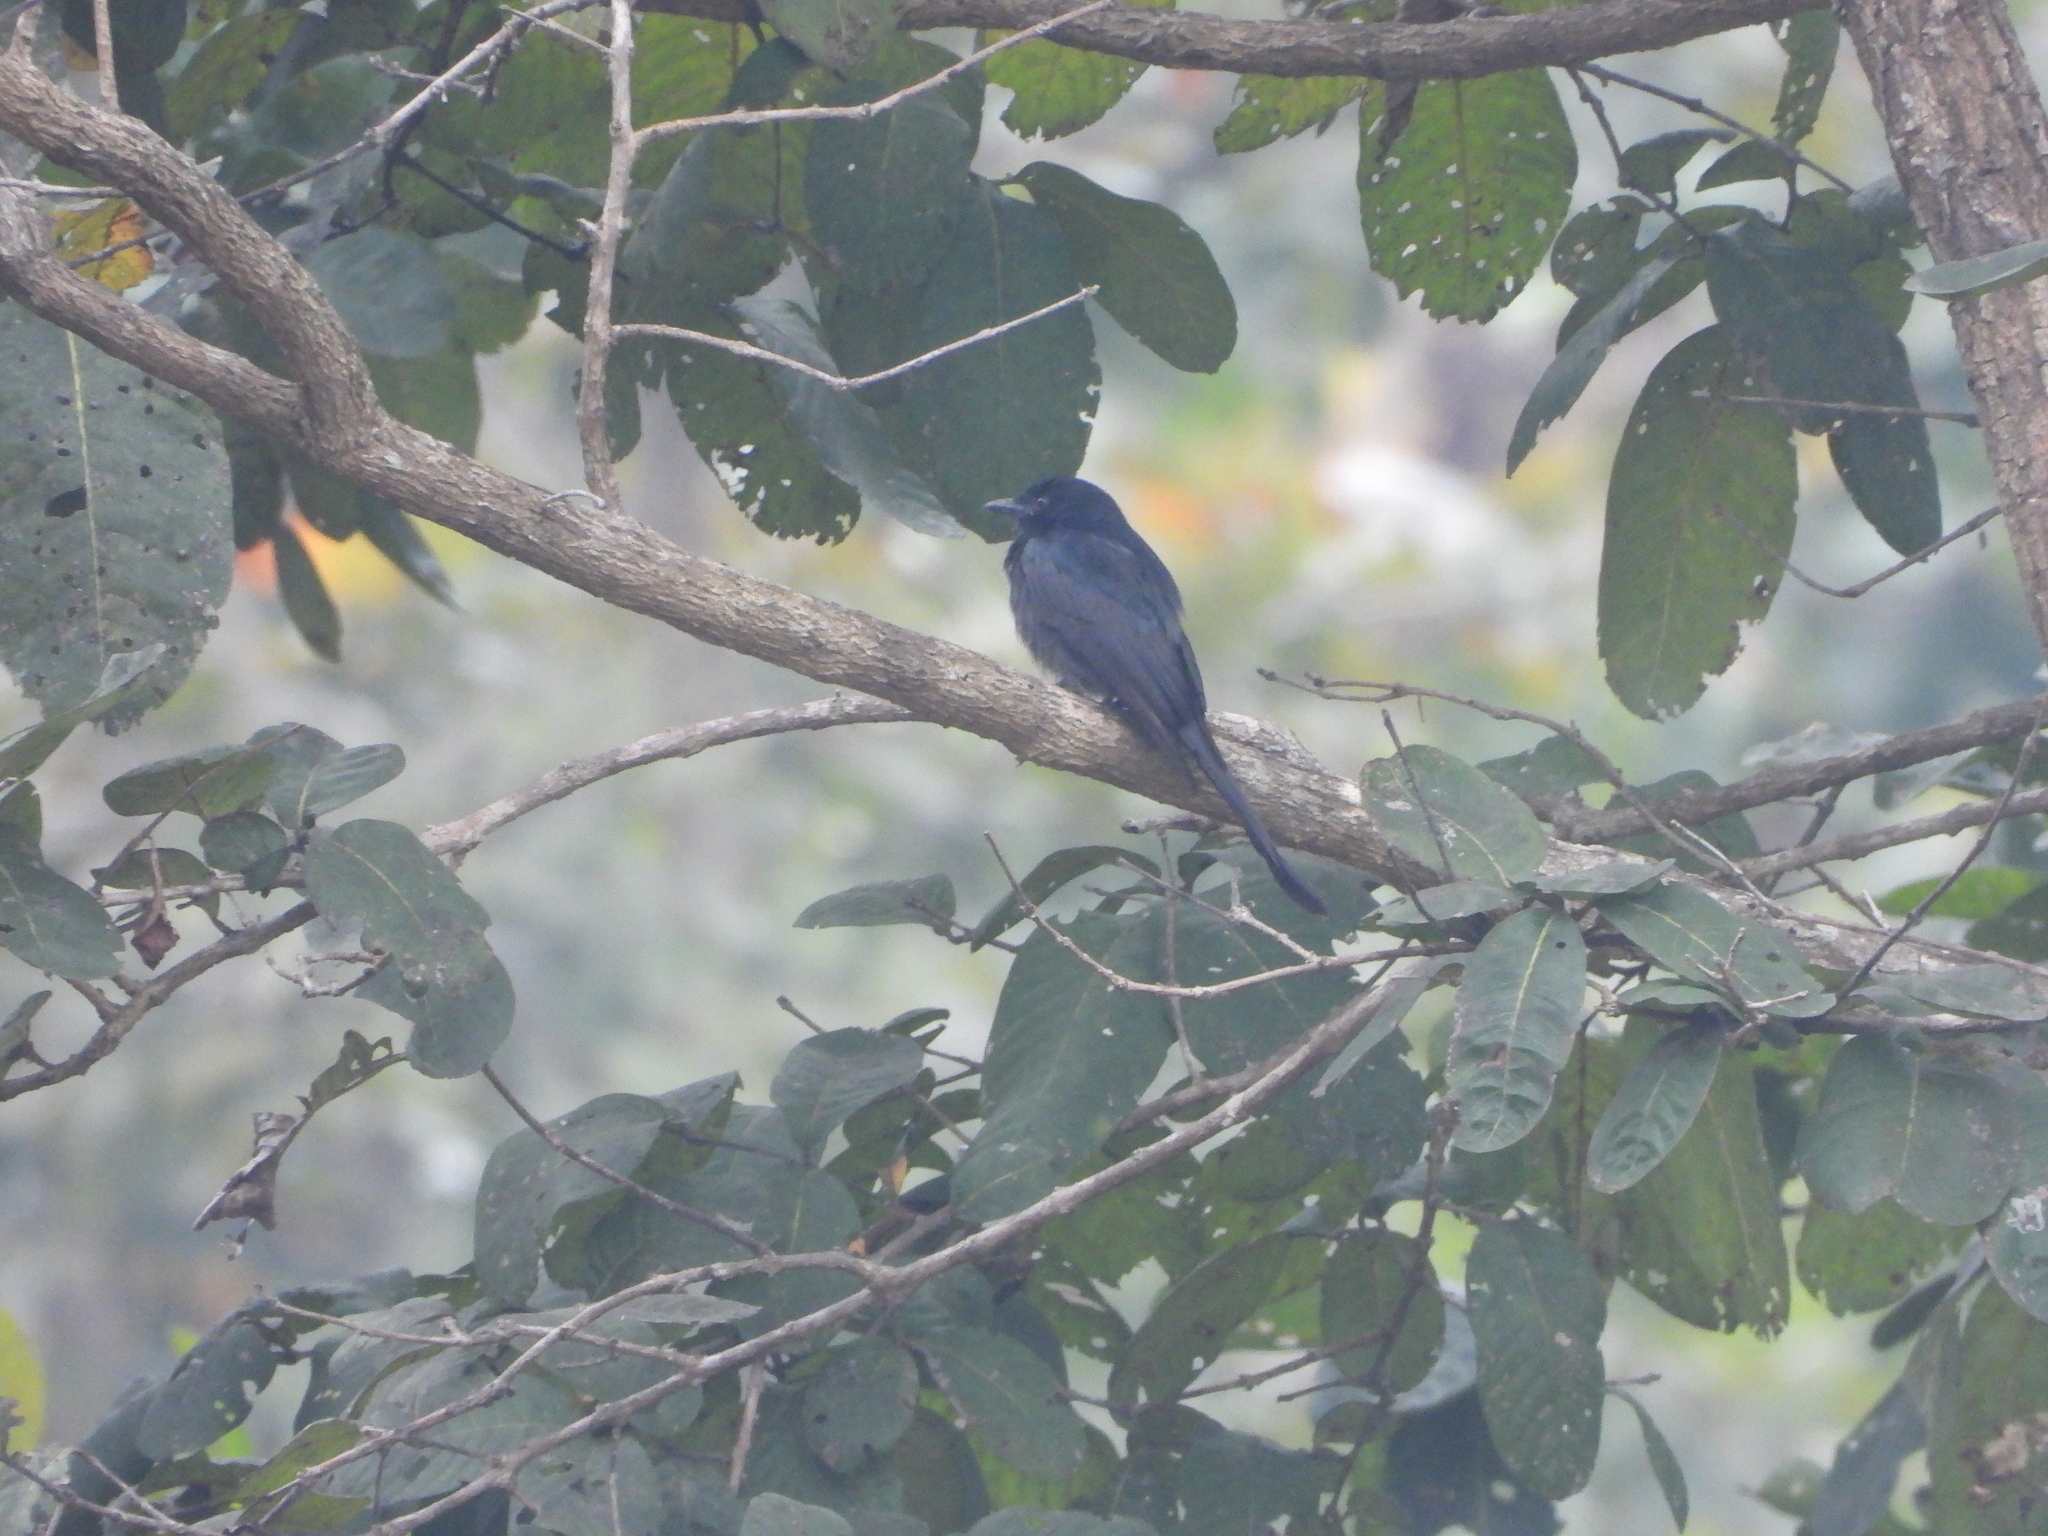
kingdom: Animalia
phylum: Chordata
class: Aves
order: Passeriformes
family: Dicruridae
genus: Dicrurus
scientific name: Dicrurus macrocercus
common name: Black drongo
